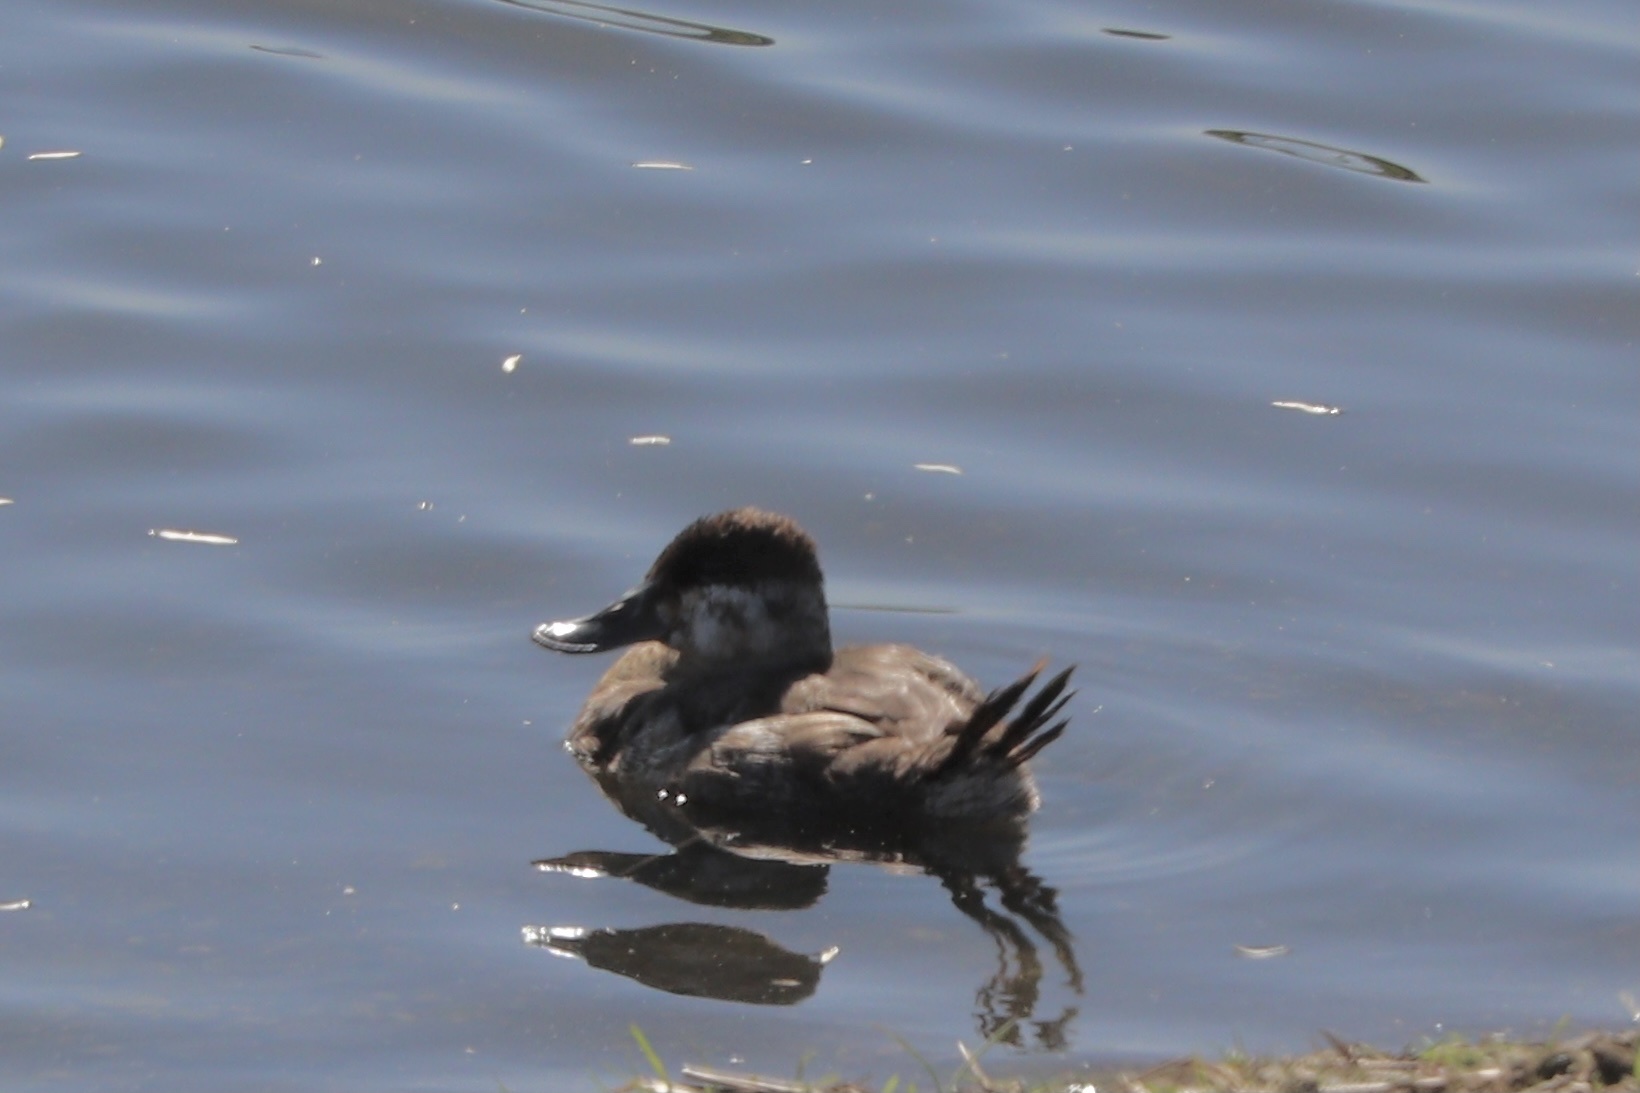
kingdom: Animalia
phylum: Chordata
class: Aves
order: Anseriformes
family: Anatidae
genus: Oxyura
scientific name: Oxyura jamaicensis
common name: Ruddy duck
